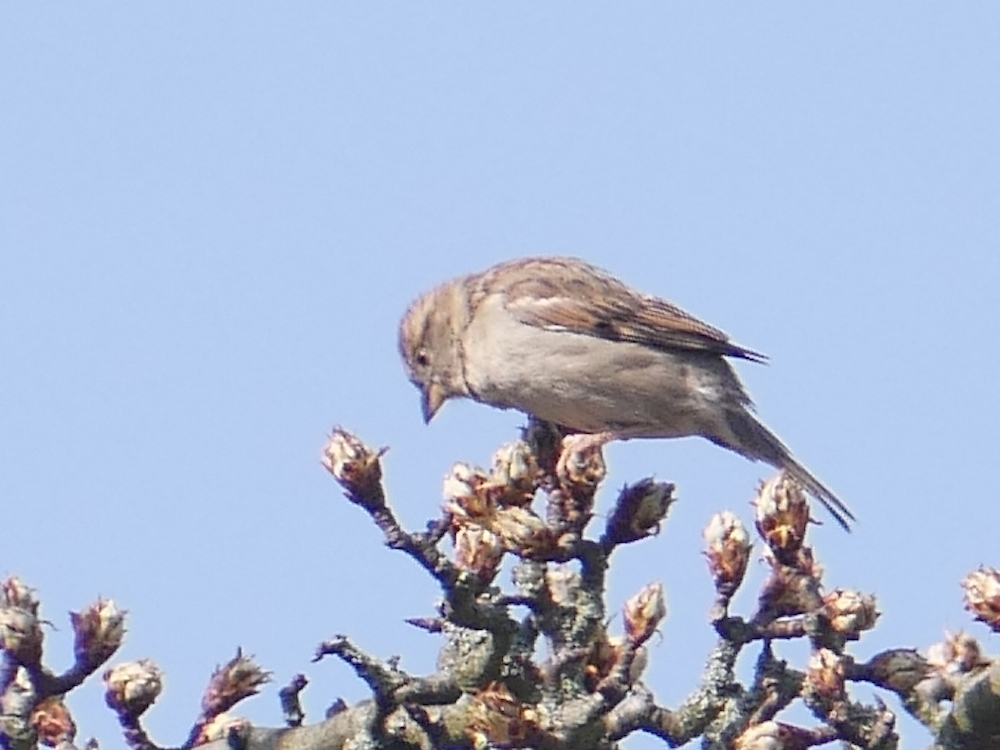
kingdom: Animalia
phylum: Chordata
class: Aves
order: Passeriformes
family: Passeridae
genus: Passer
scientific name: Passer domesticus
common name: House sparrow
